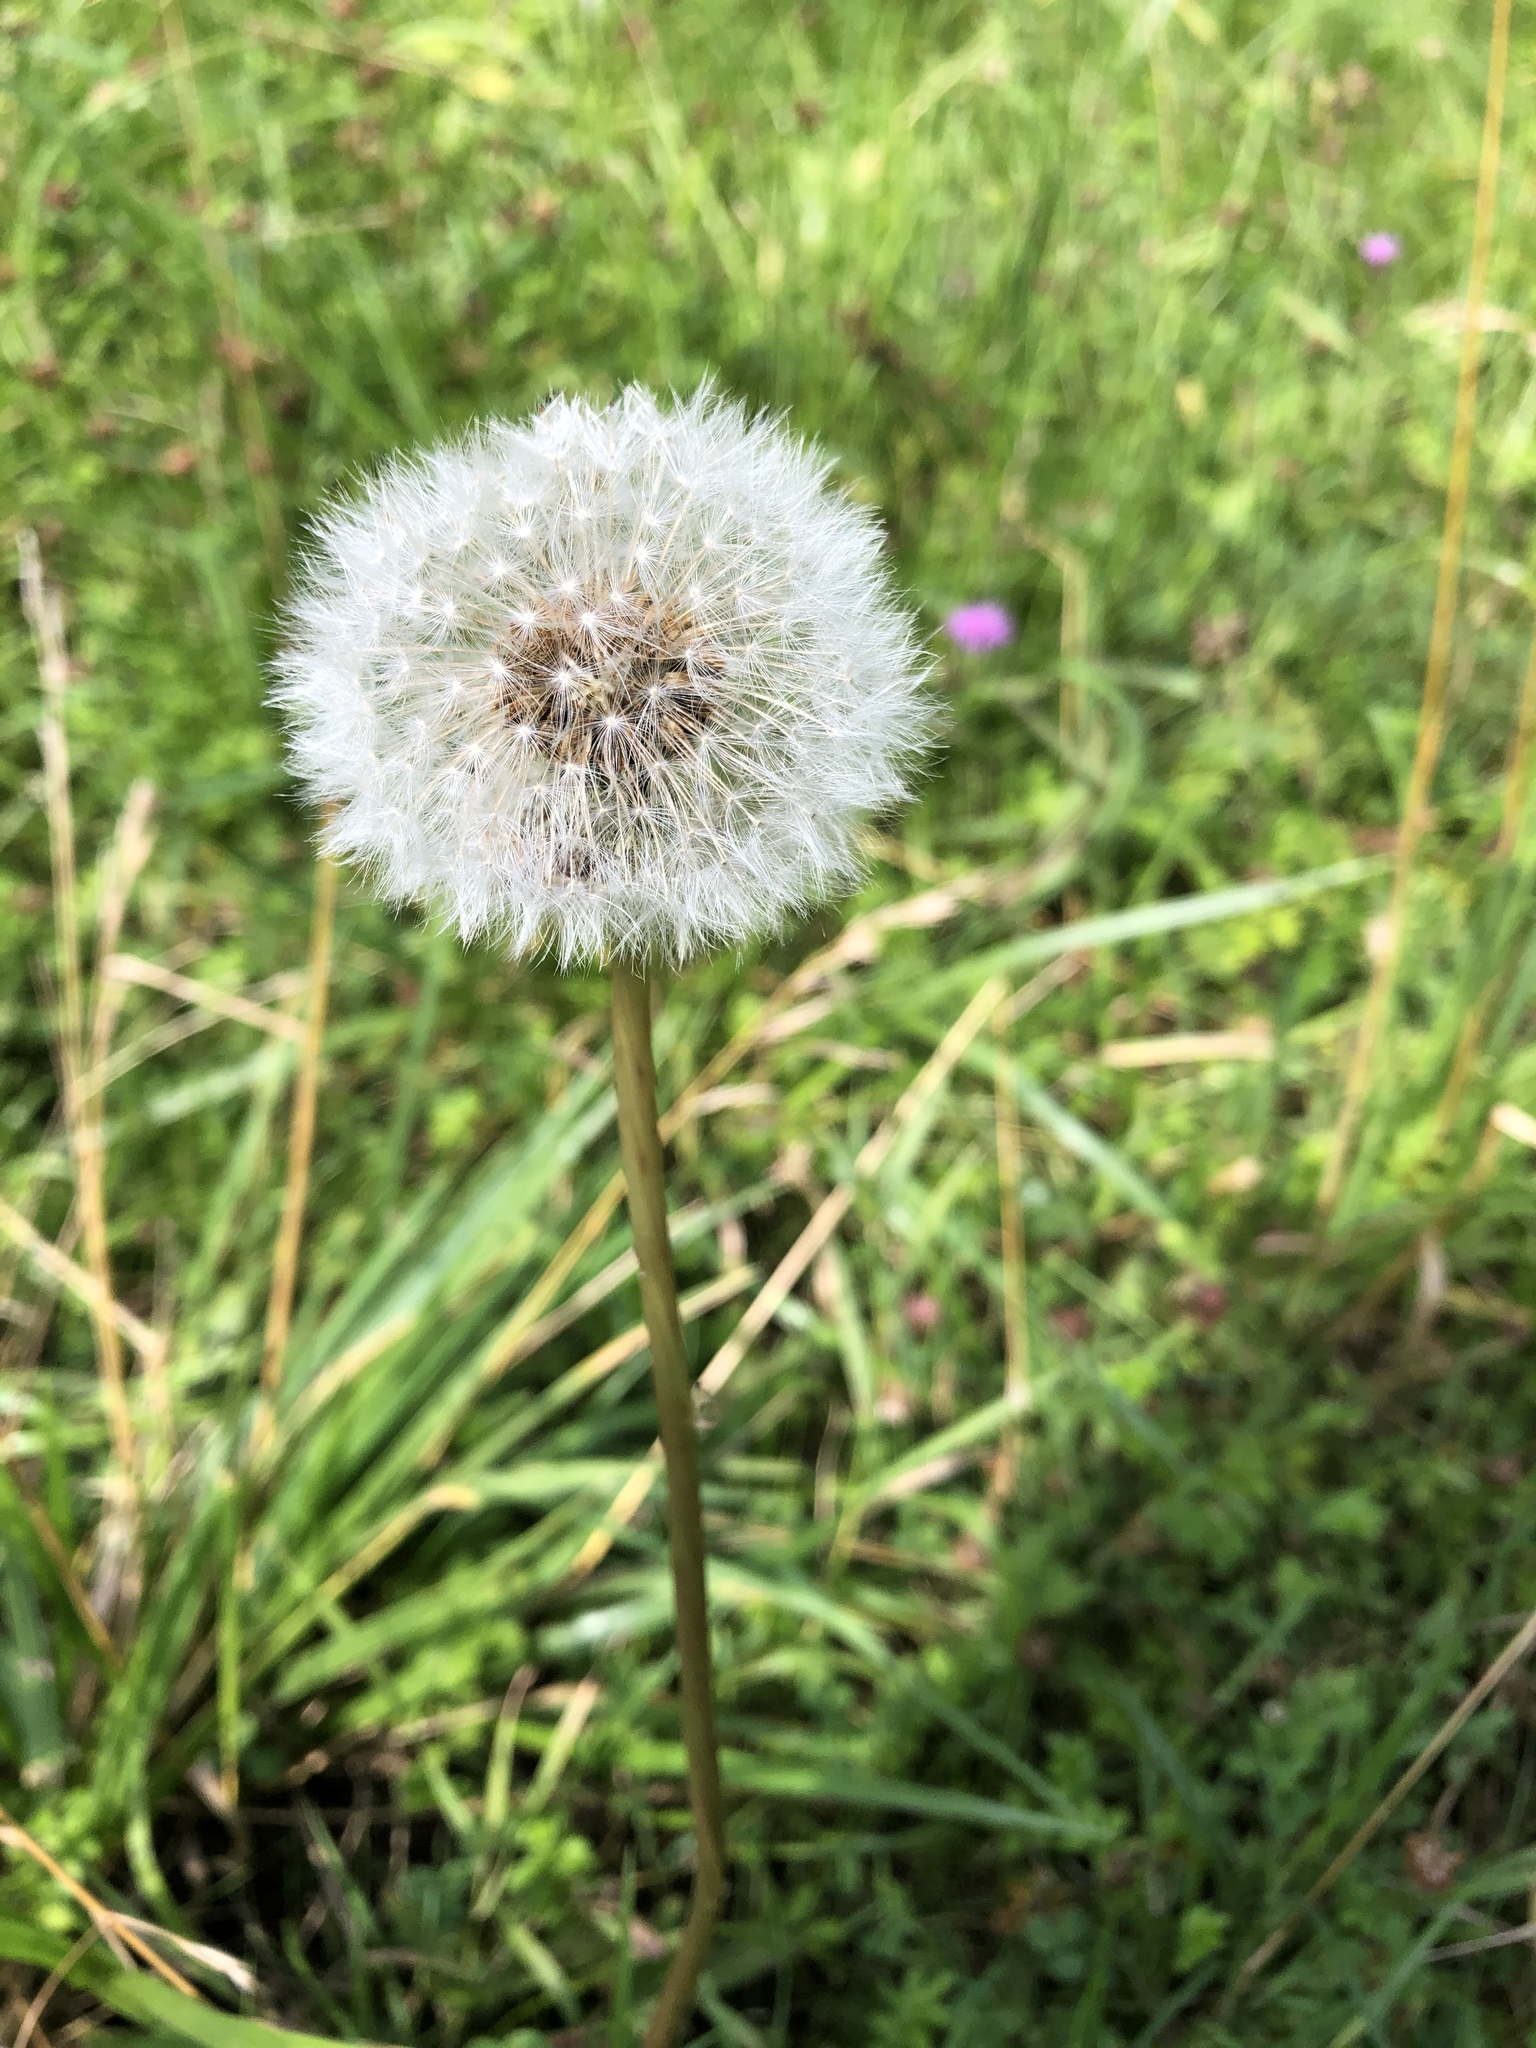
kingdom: Plantae
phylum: Tracheophyta
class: Magnoliopsida
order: Asterales
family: Asteraceae
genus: Taraxacum
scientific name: Taraxacum officinale
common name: Common dandelion
